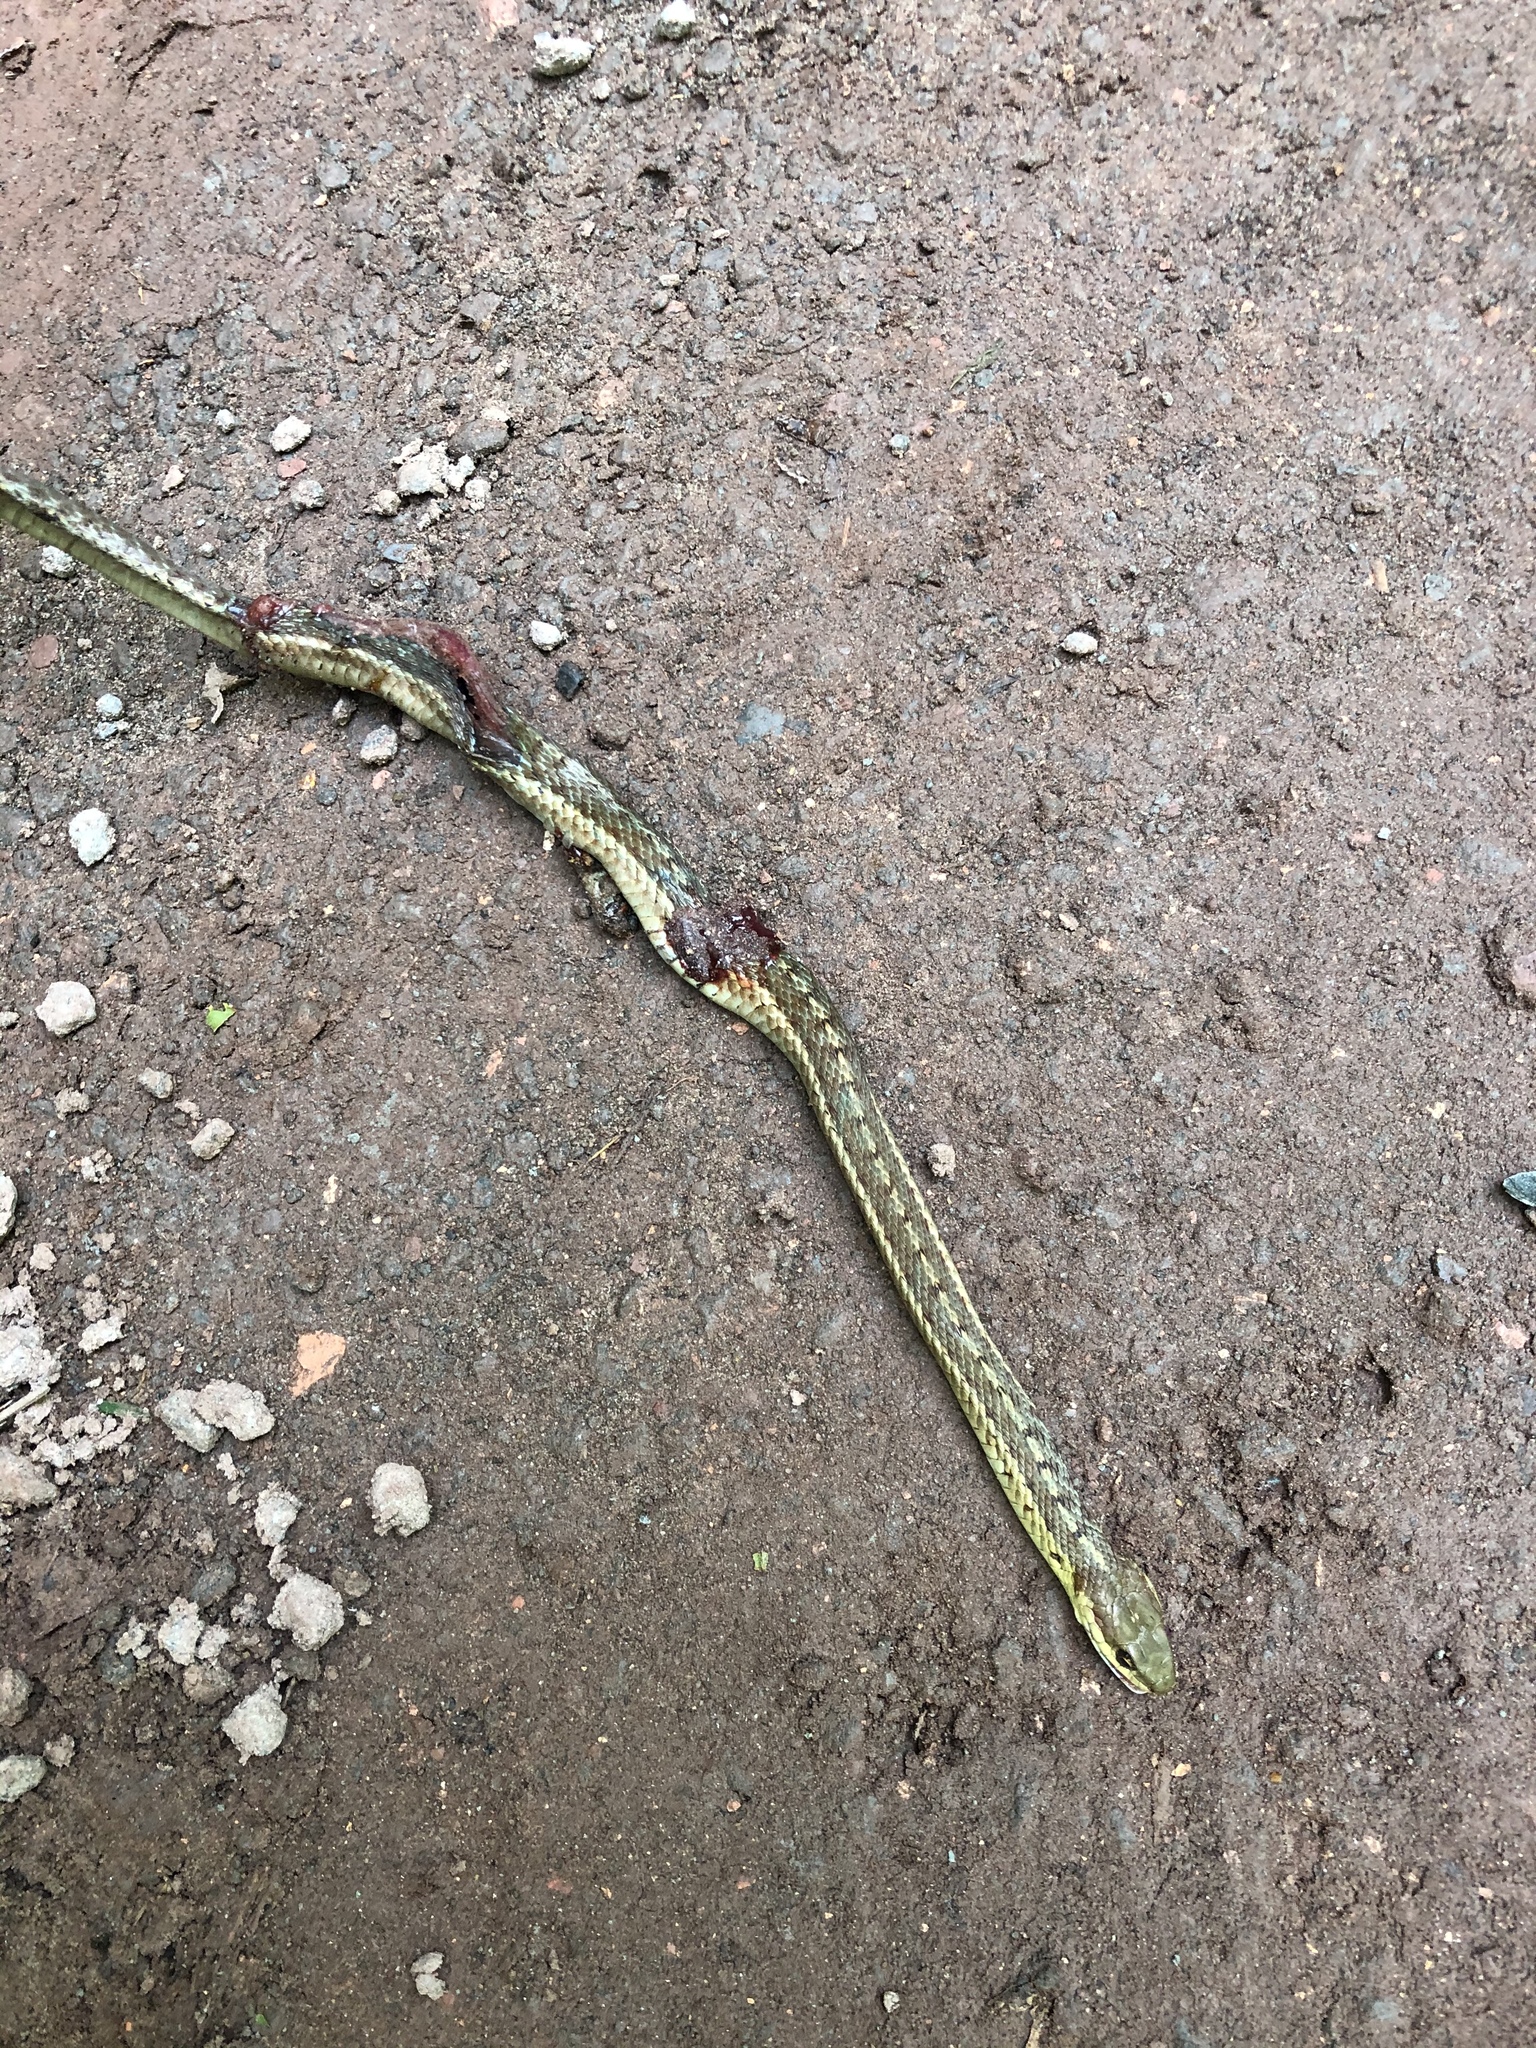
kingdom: Animalia
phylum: Chordata
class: Squamata
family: Colubridae
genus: Thamnophis
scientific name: Thamnophis sirtalis
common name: Common garter snake
